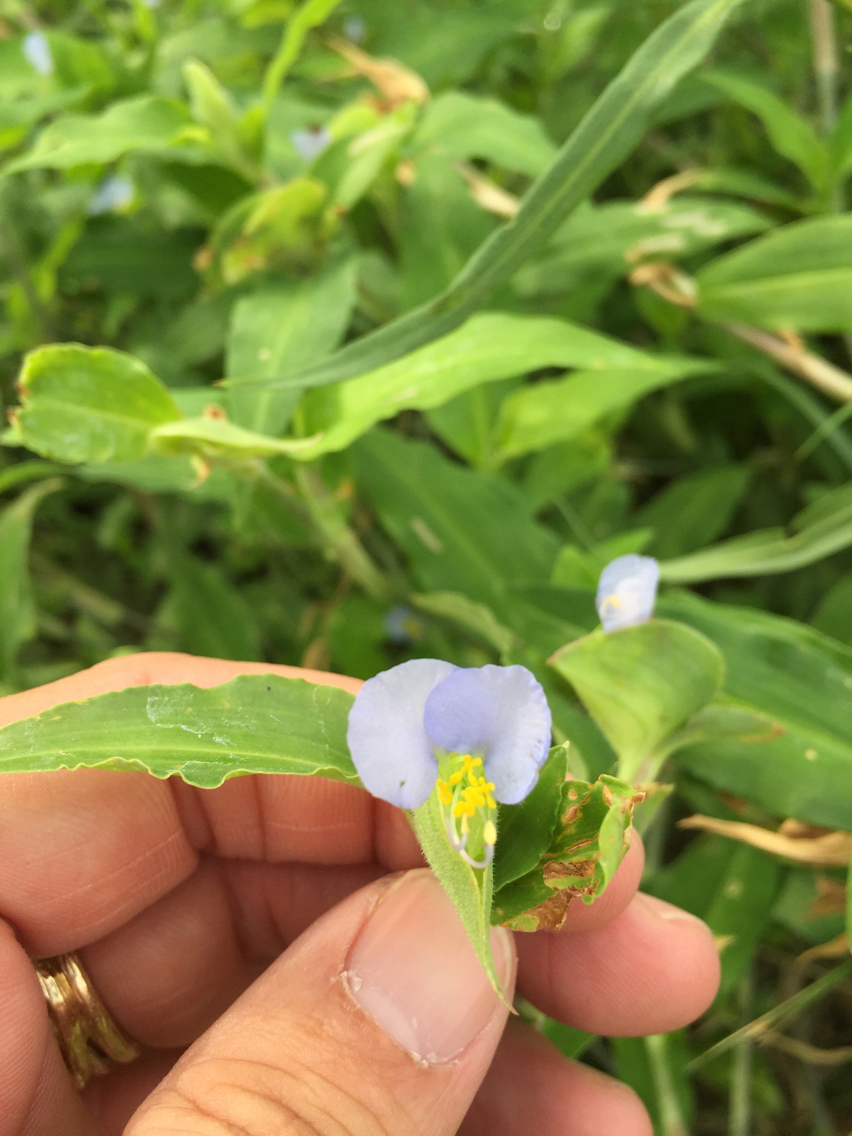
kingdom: Plantae
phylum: Tracheophyta
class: Liliopsida
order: Commelinales
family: Commelinaceae
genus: Commelina
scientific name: Commelina erecta
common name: Blousel blommetjie
